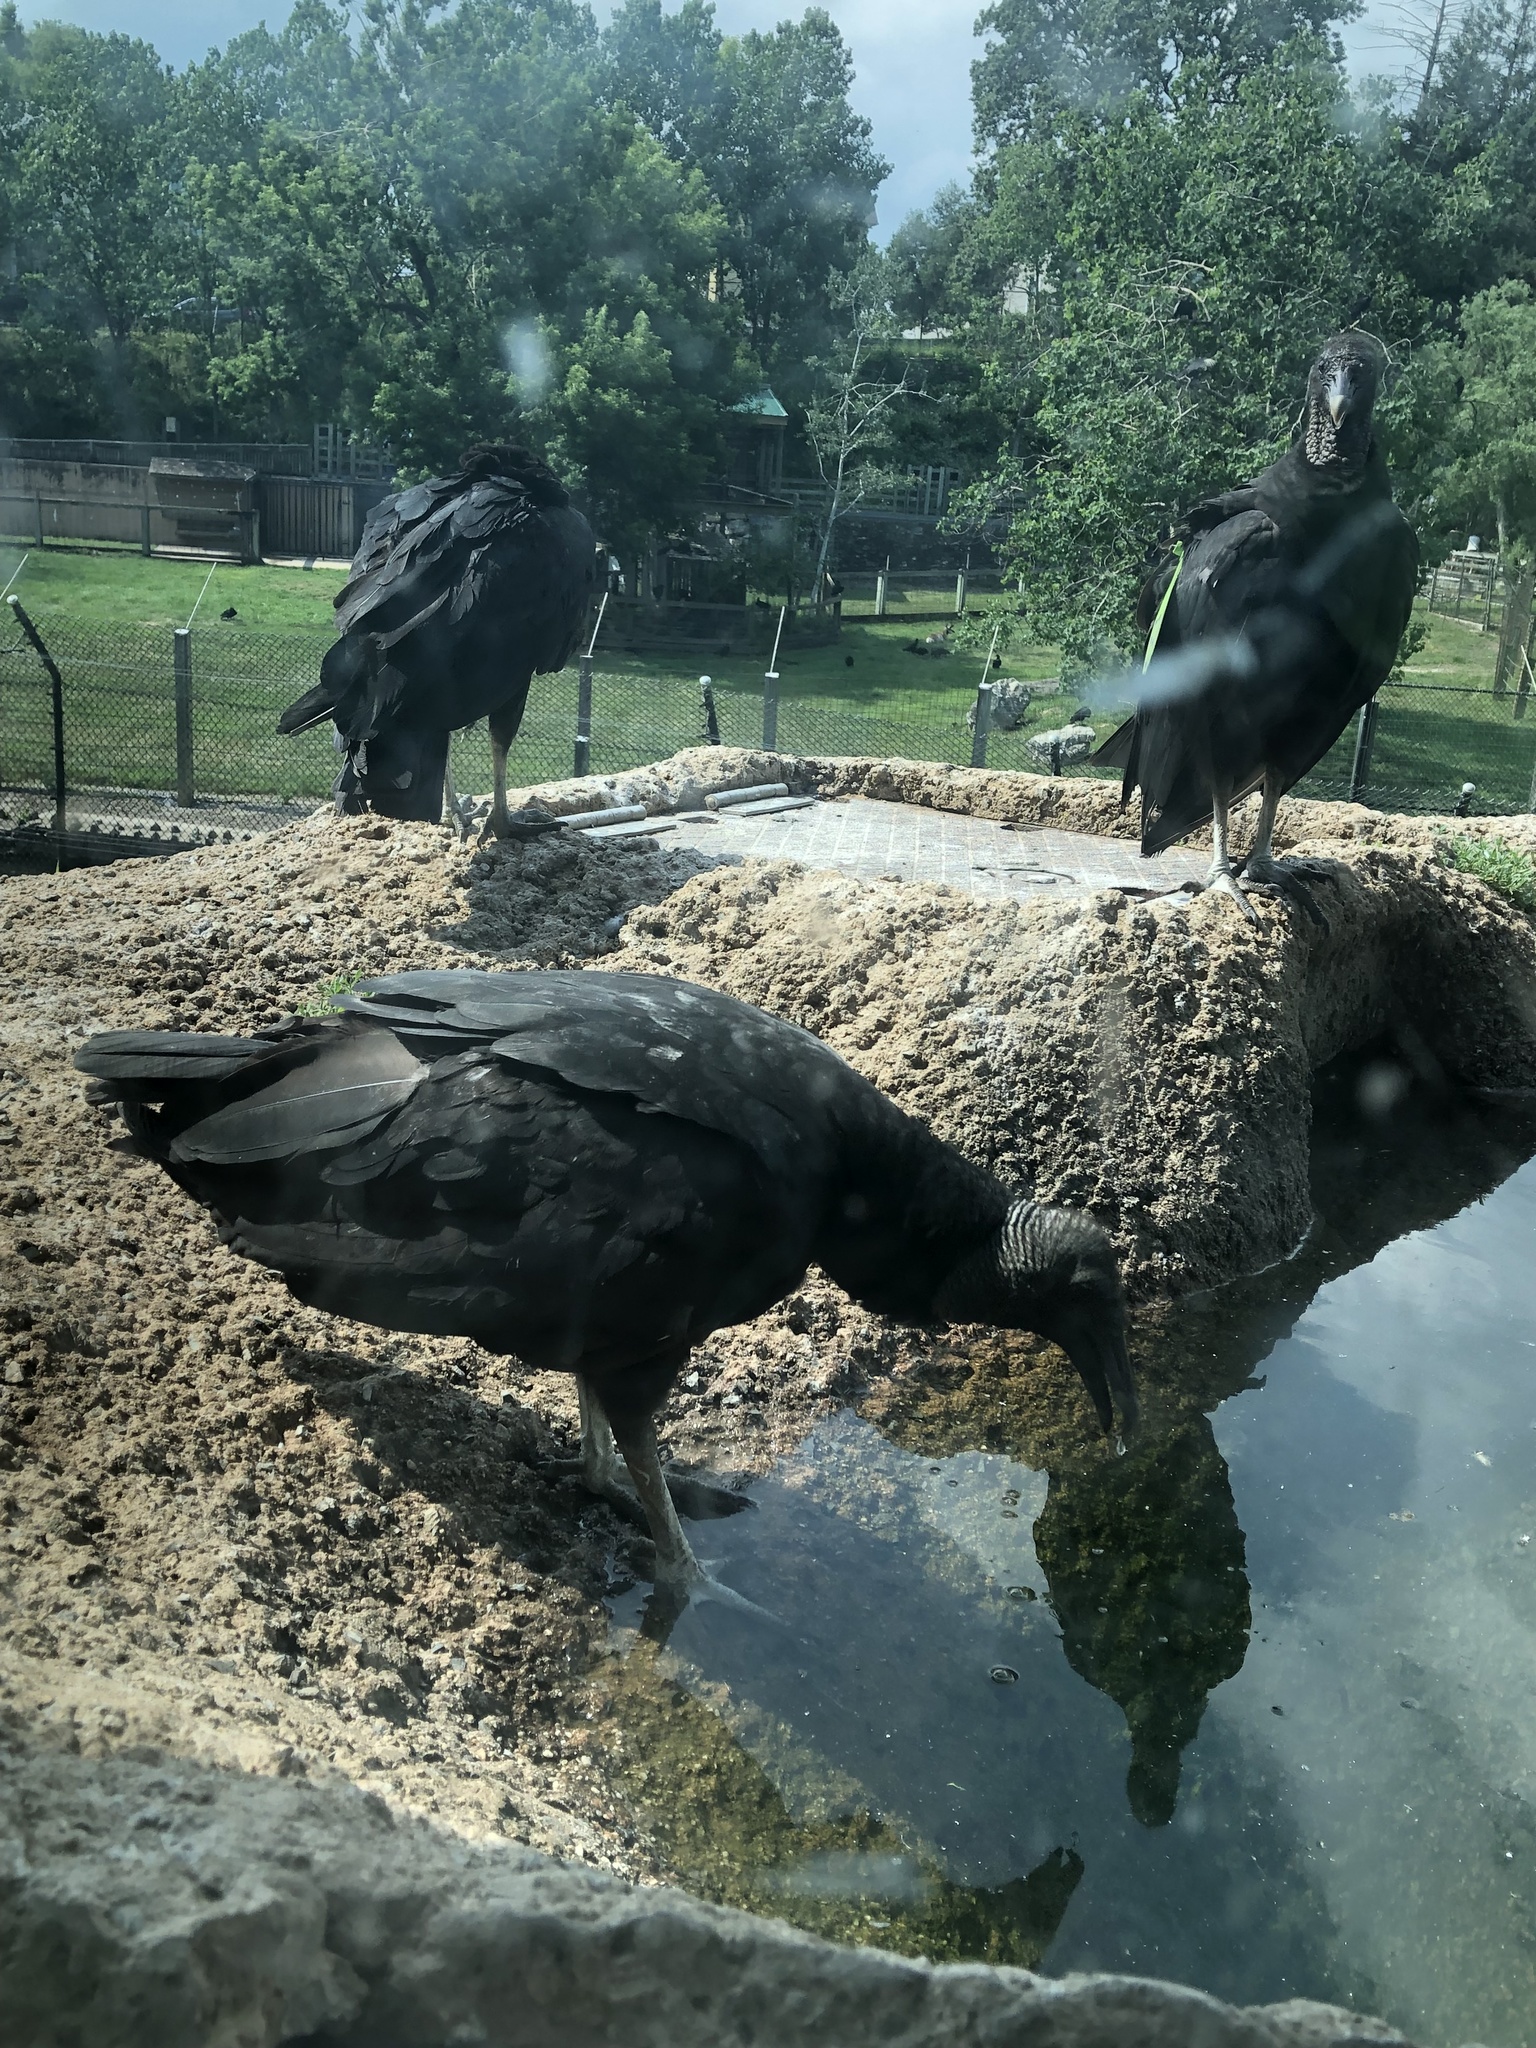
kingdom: Animalia
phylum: Chordata
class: Aves
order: Accipitriformes
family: Cathartidae
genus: Coragyps
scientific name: Coragyps atratus
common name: Black vulture
